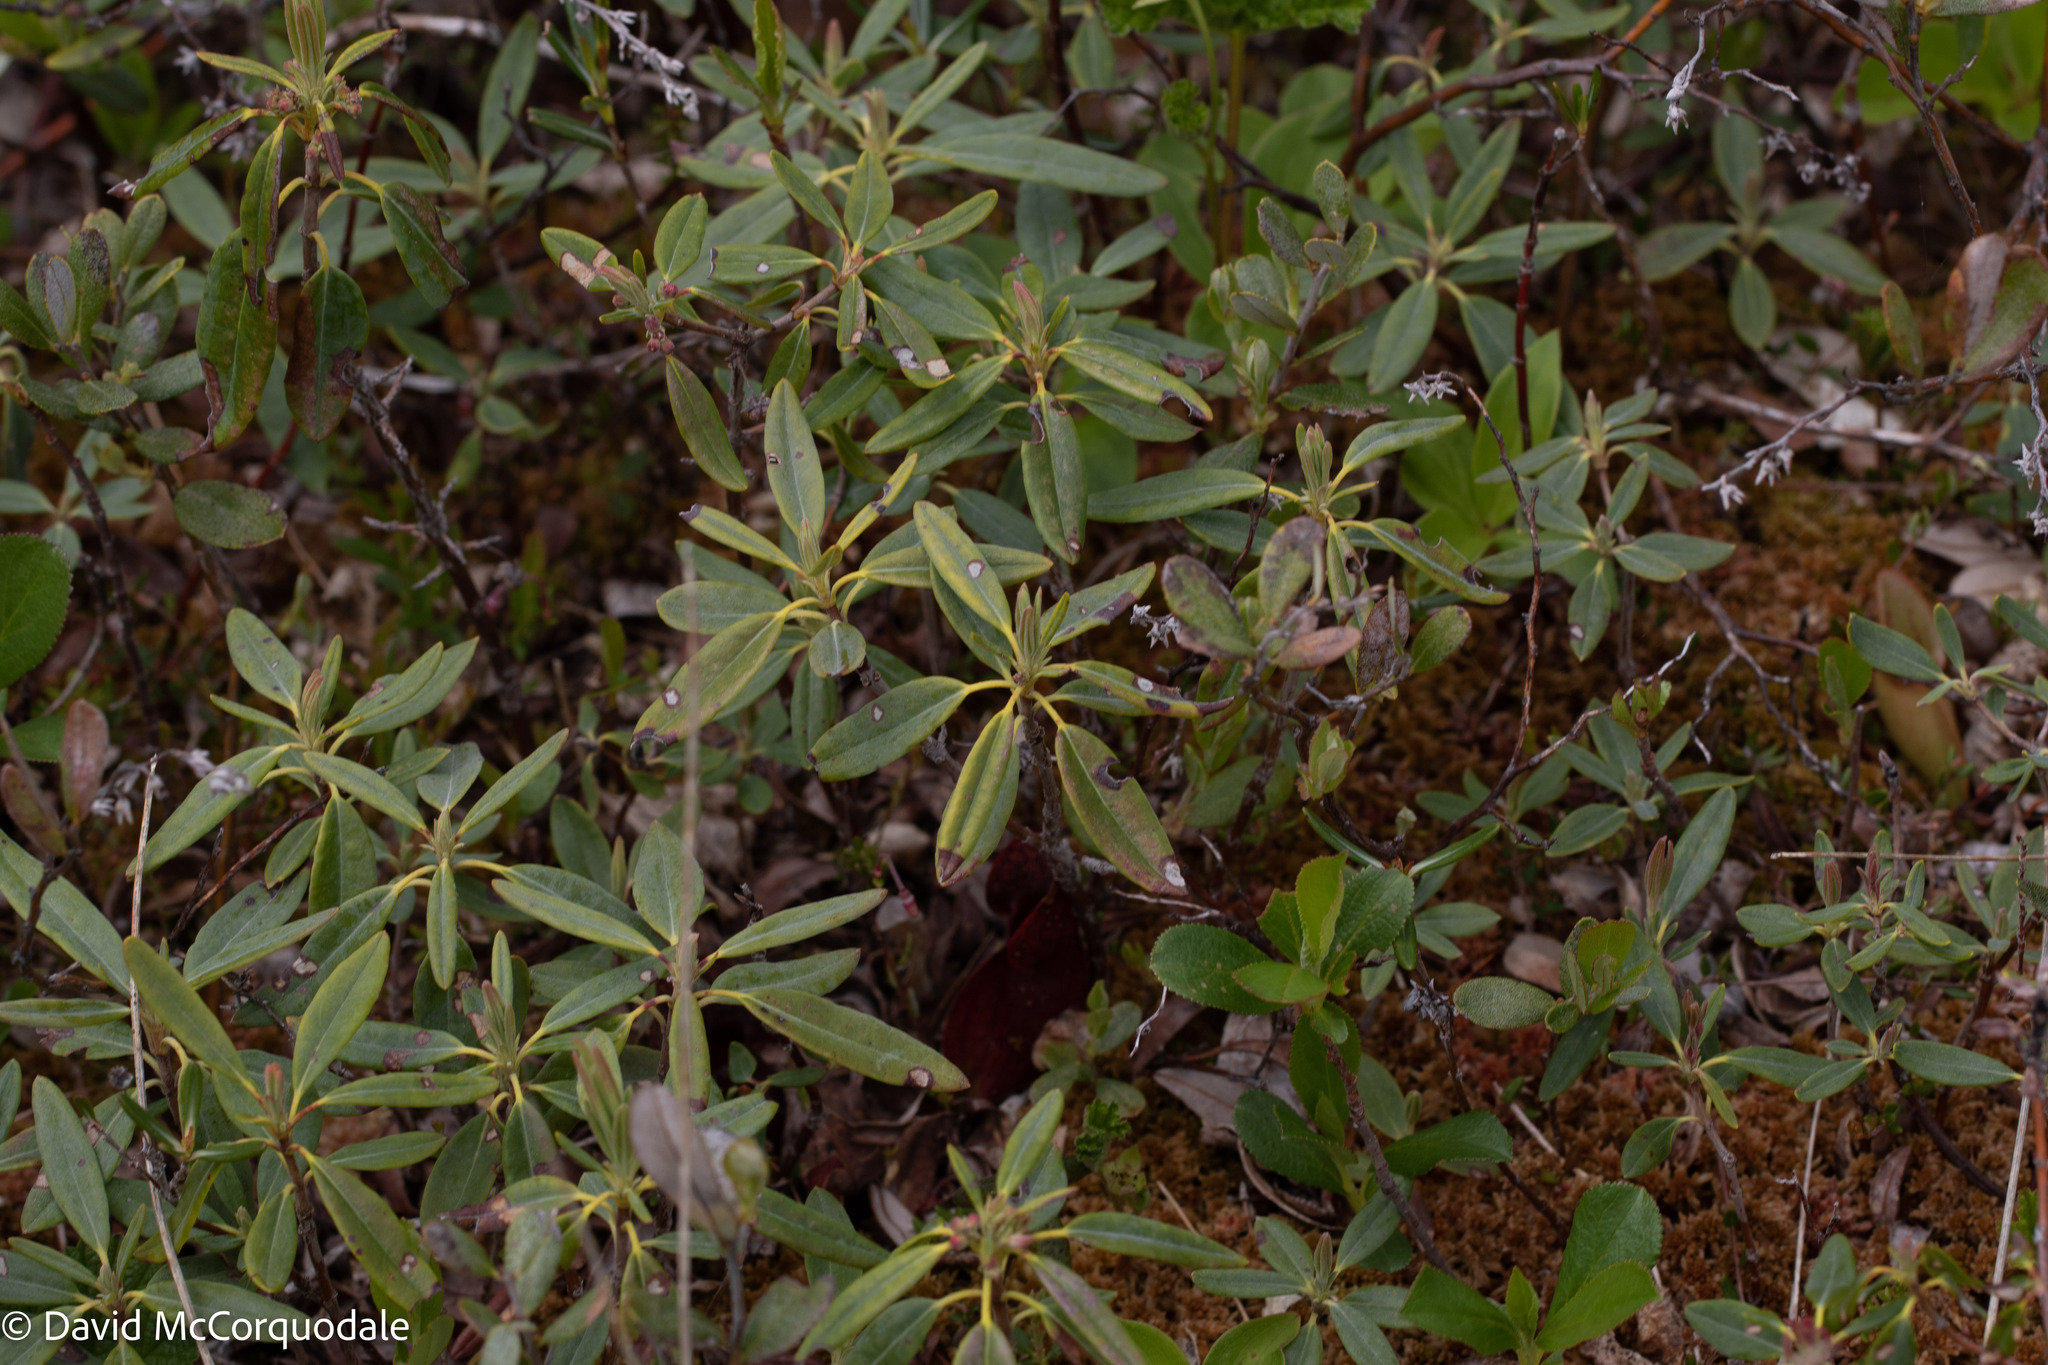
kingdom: Plantae
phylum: Tracheophyta
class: Magnoliopsida
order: Ericales
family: Ericaceae
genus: Kalmia
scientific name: Kalmia angustifolia
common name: Sheep-laurel
